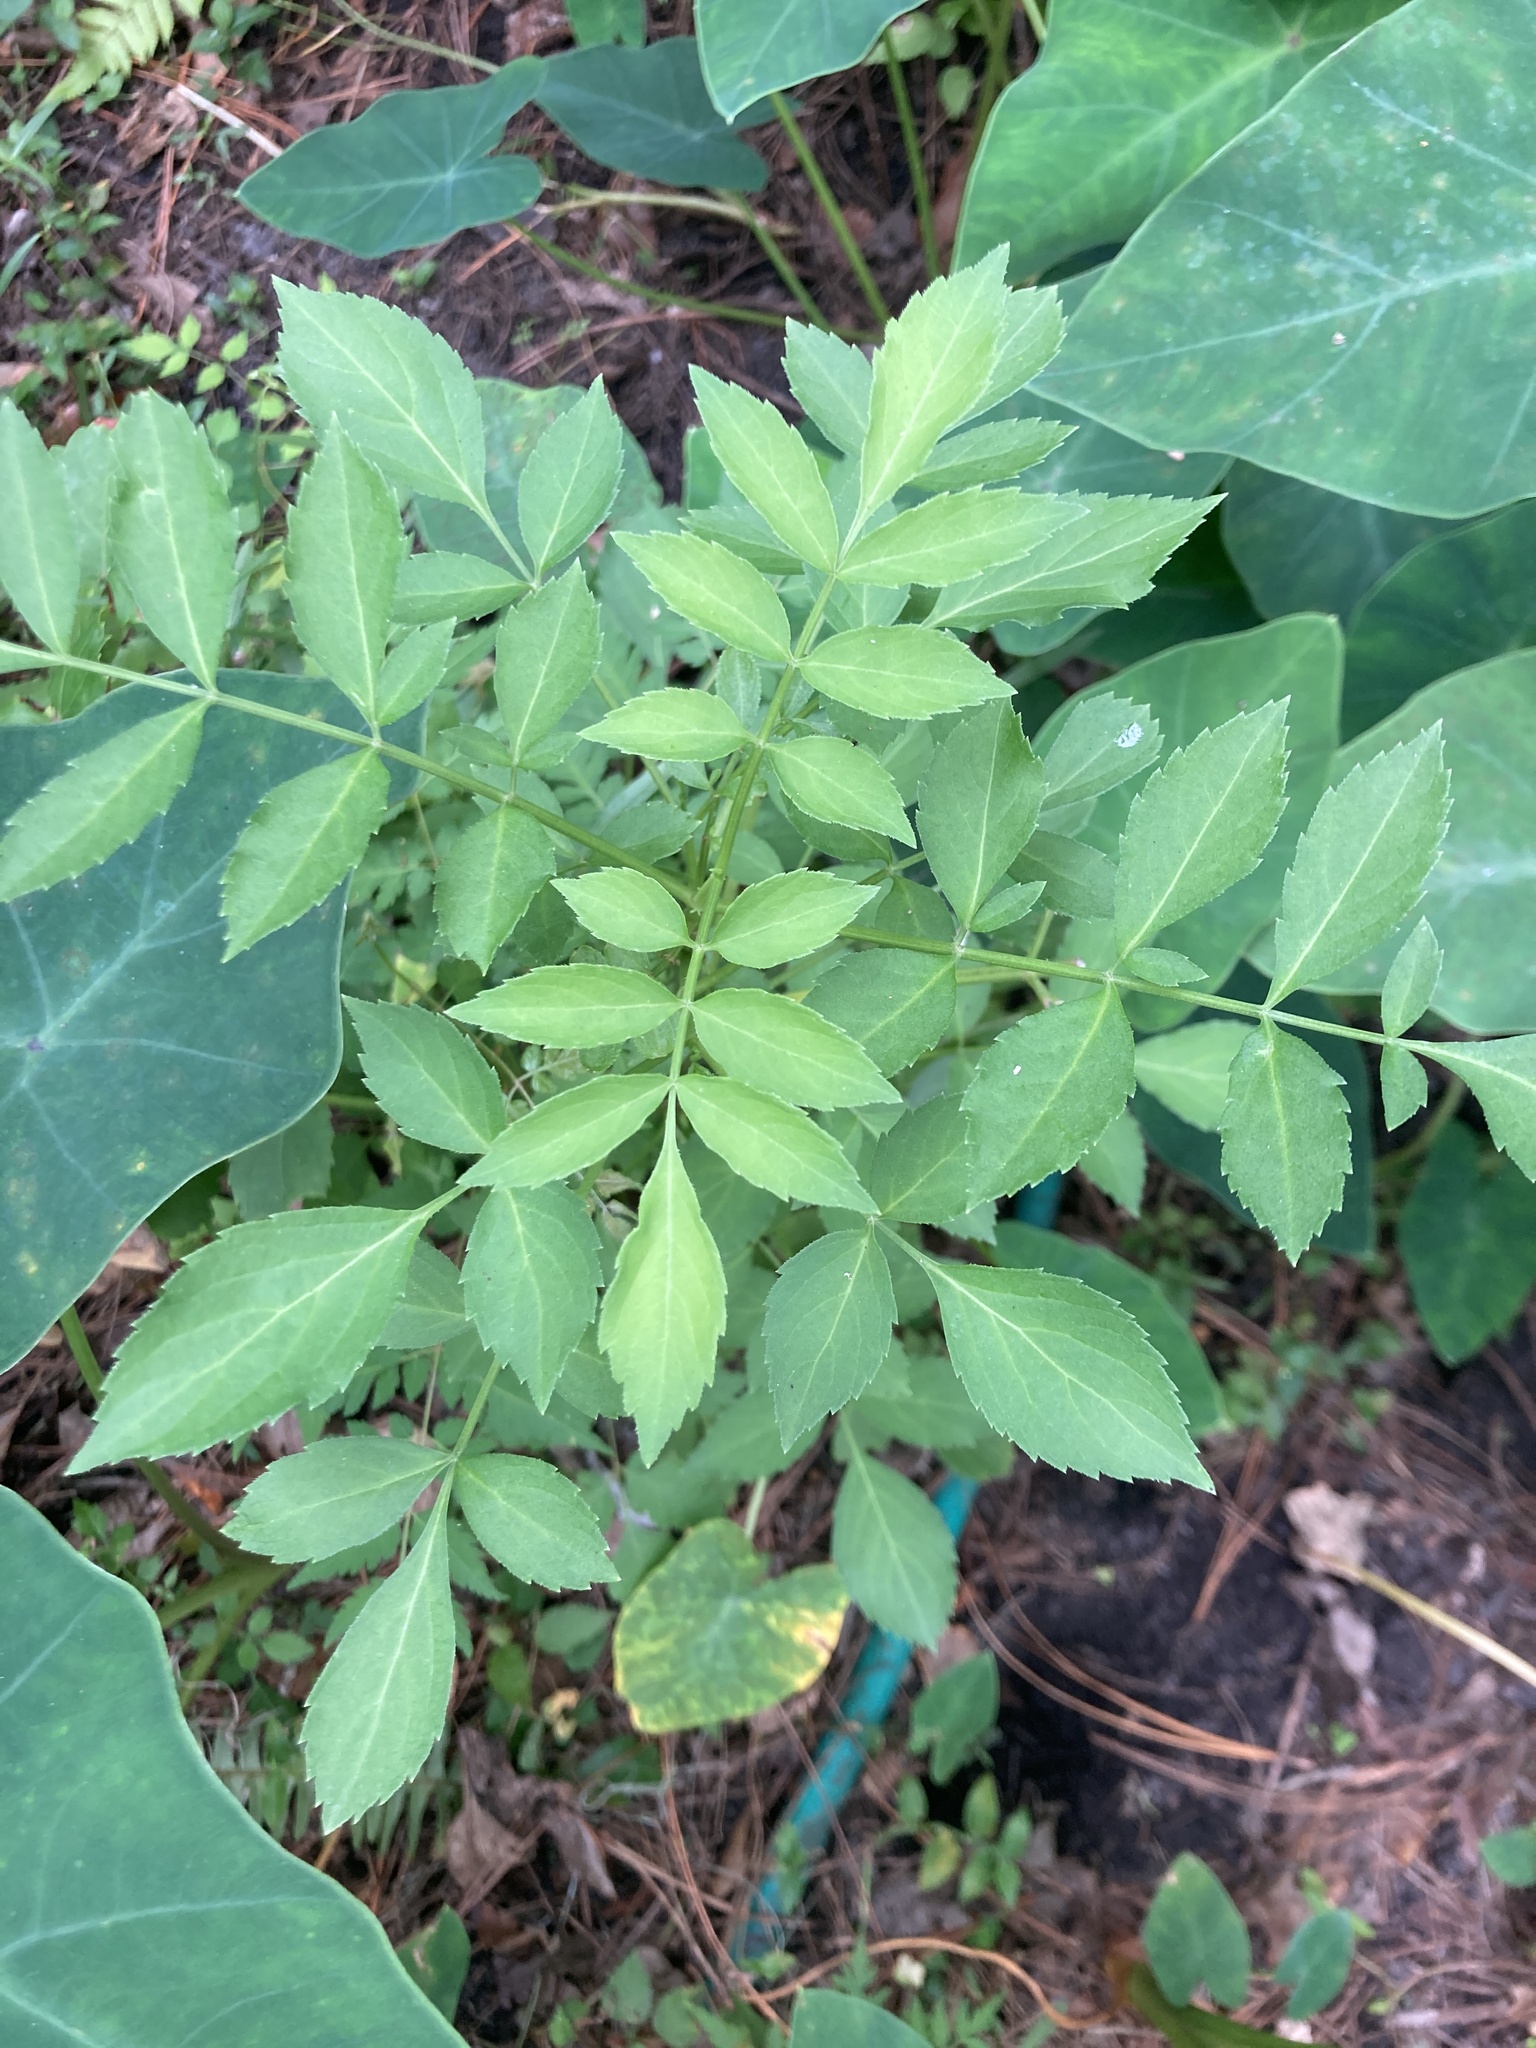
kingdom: Plantae
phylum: Tracheophyta
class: Magnoliopsida
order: Dipsacales
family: Viburnaceae
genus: Sambucus
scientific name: Sambucus canadensis
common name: American elder
